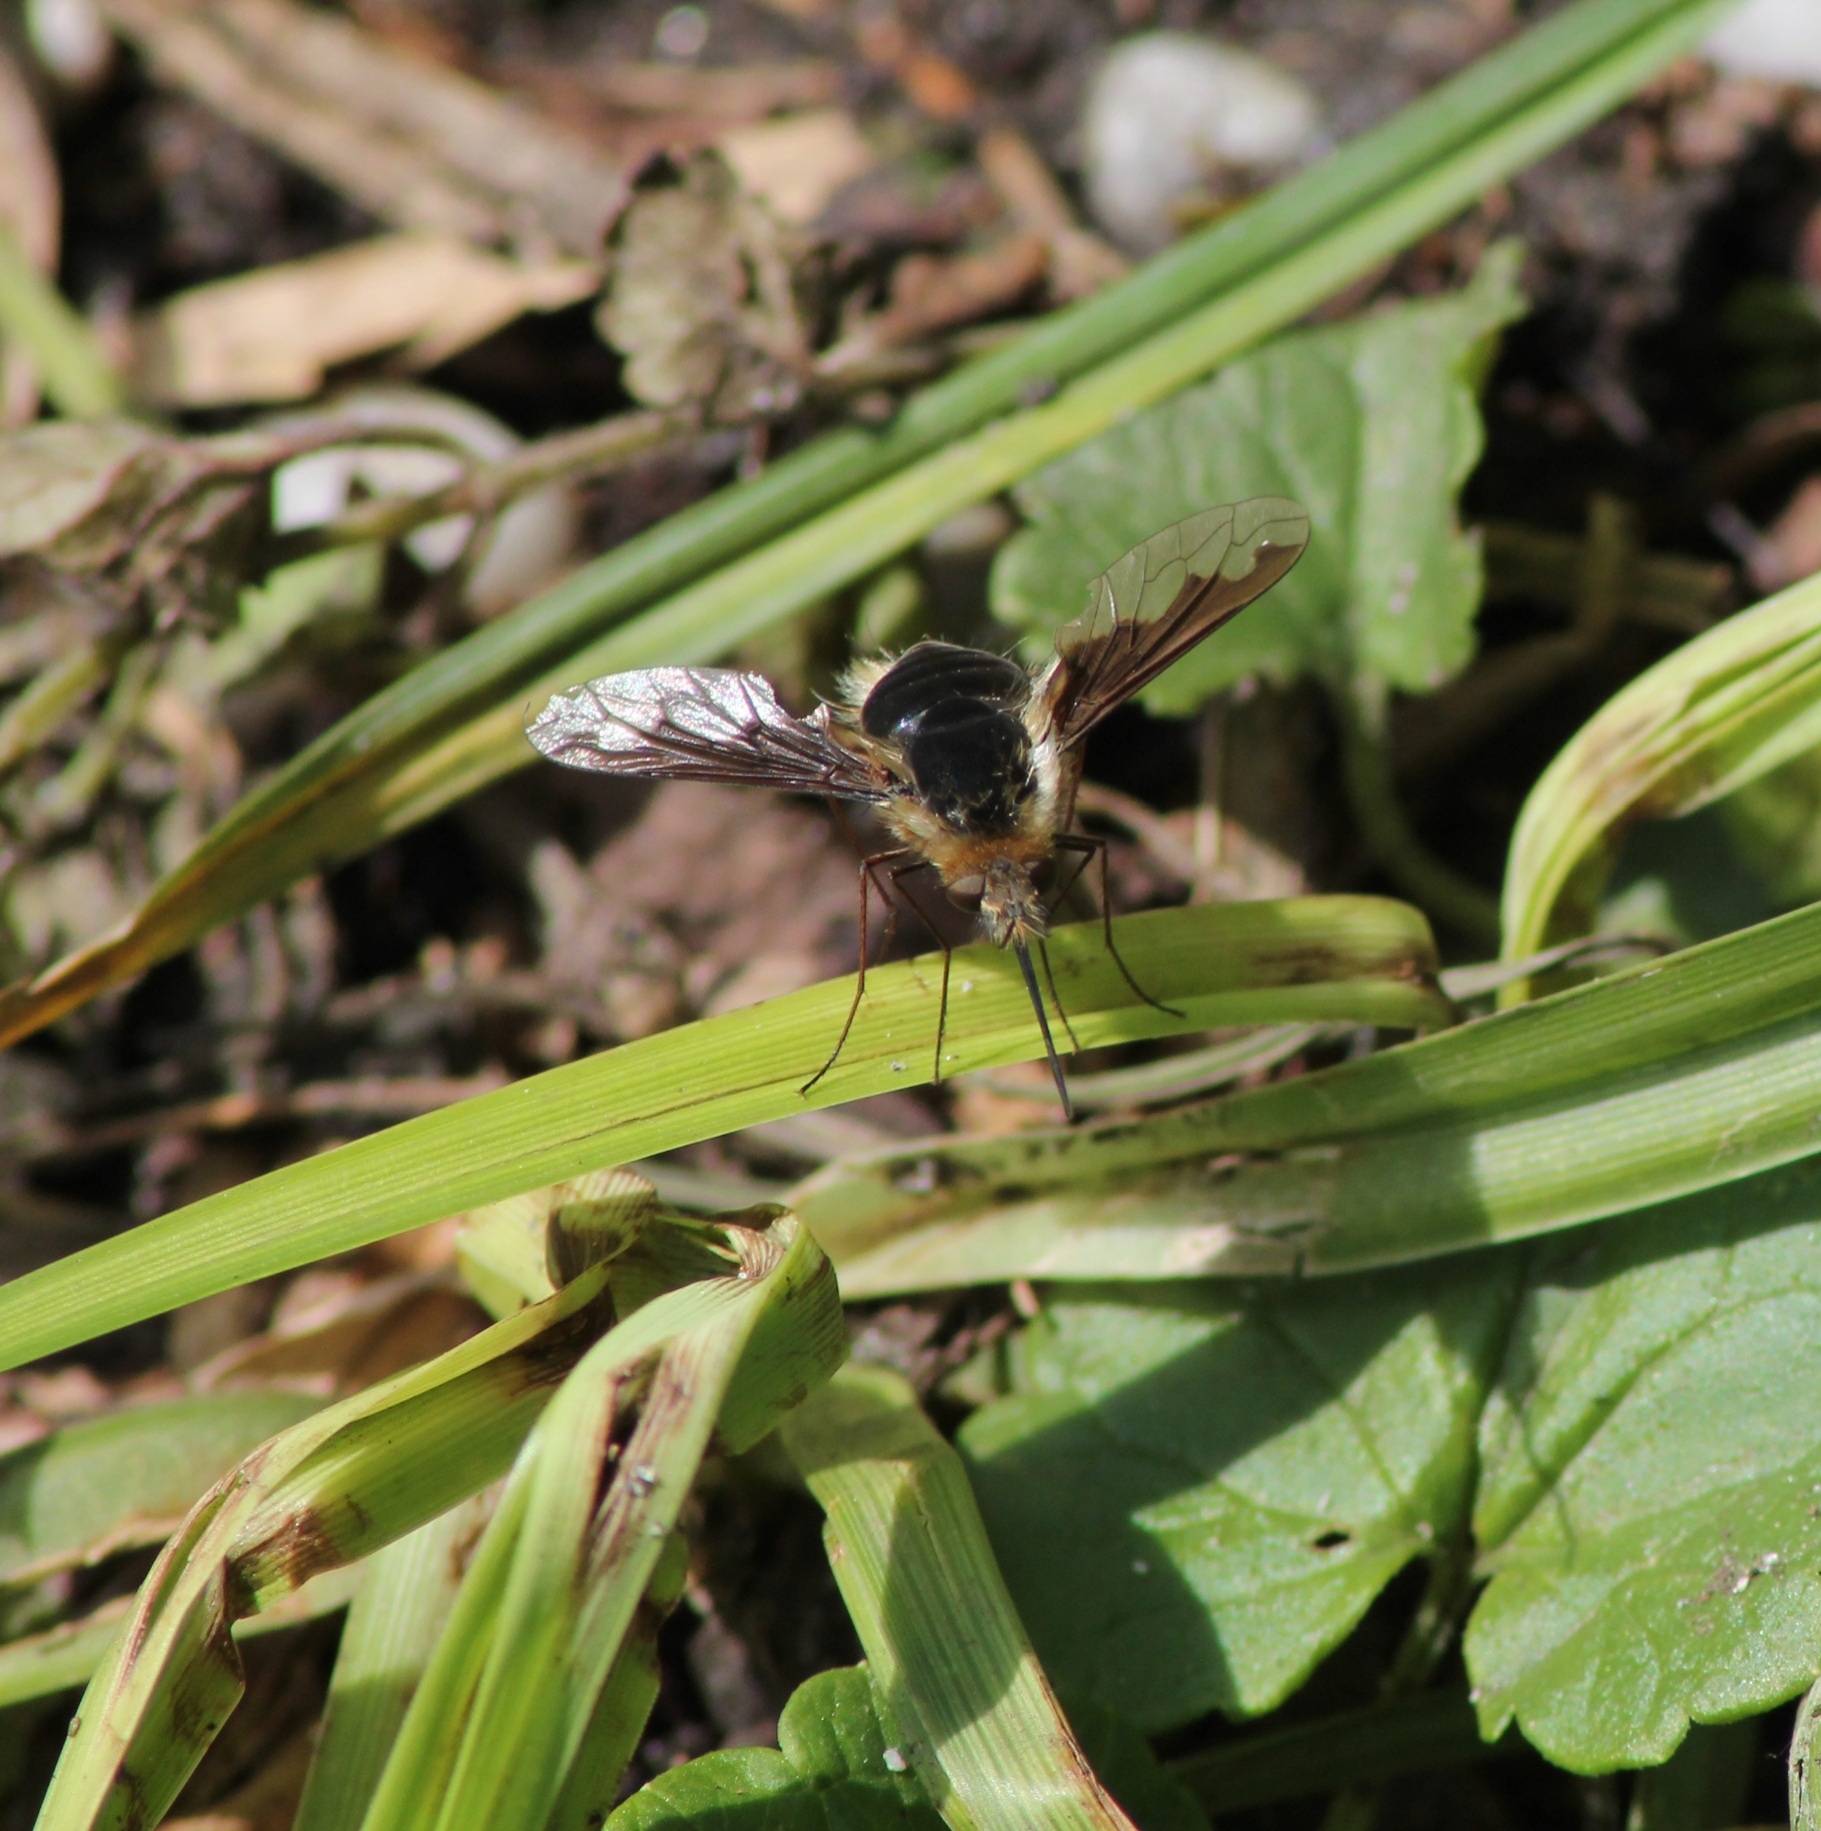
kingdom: Animalia
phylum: Arthropoda
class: Insecta
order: Diptera
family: Bombyliidae
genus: Bombylius
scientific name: Bombylius major
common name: Bee fly
